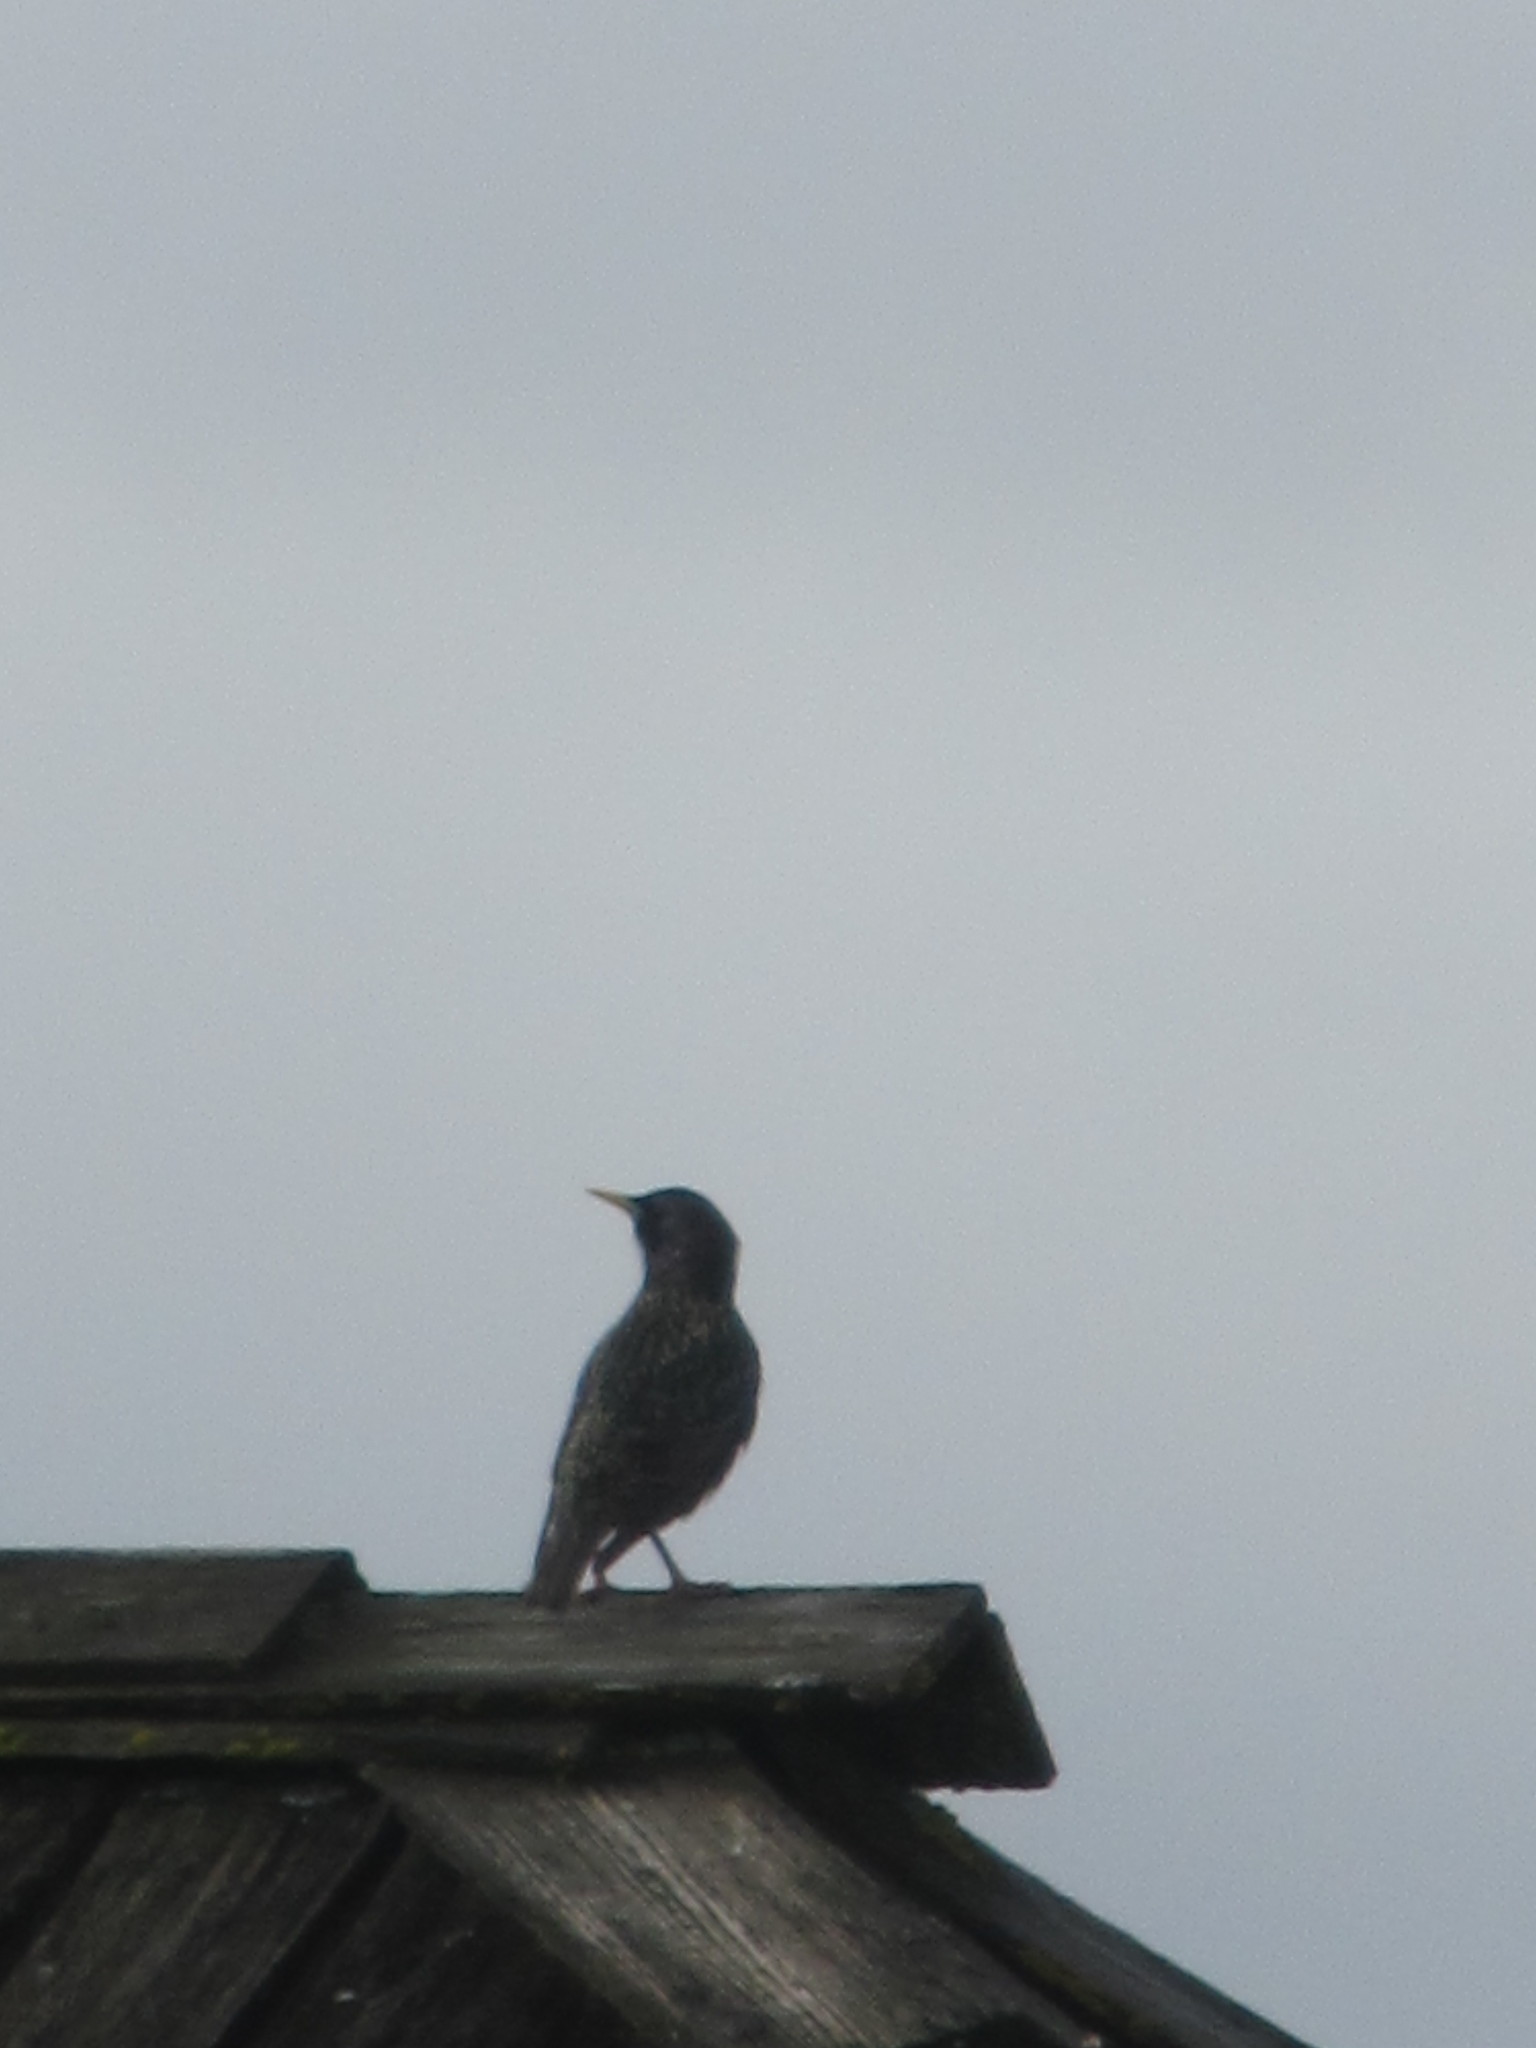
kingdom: Animalia
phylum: Chordata
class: Aves
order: Passeriformes
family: Sturnidae
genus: Sturnus
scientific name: Sturnus vulgaris
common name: Common starling
